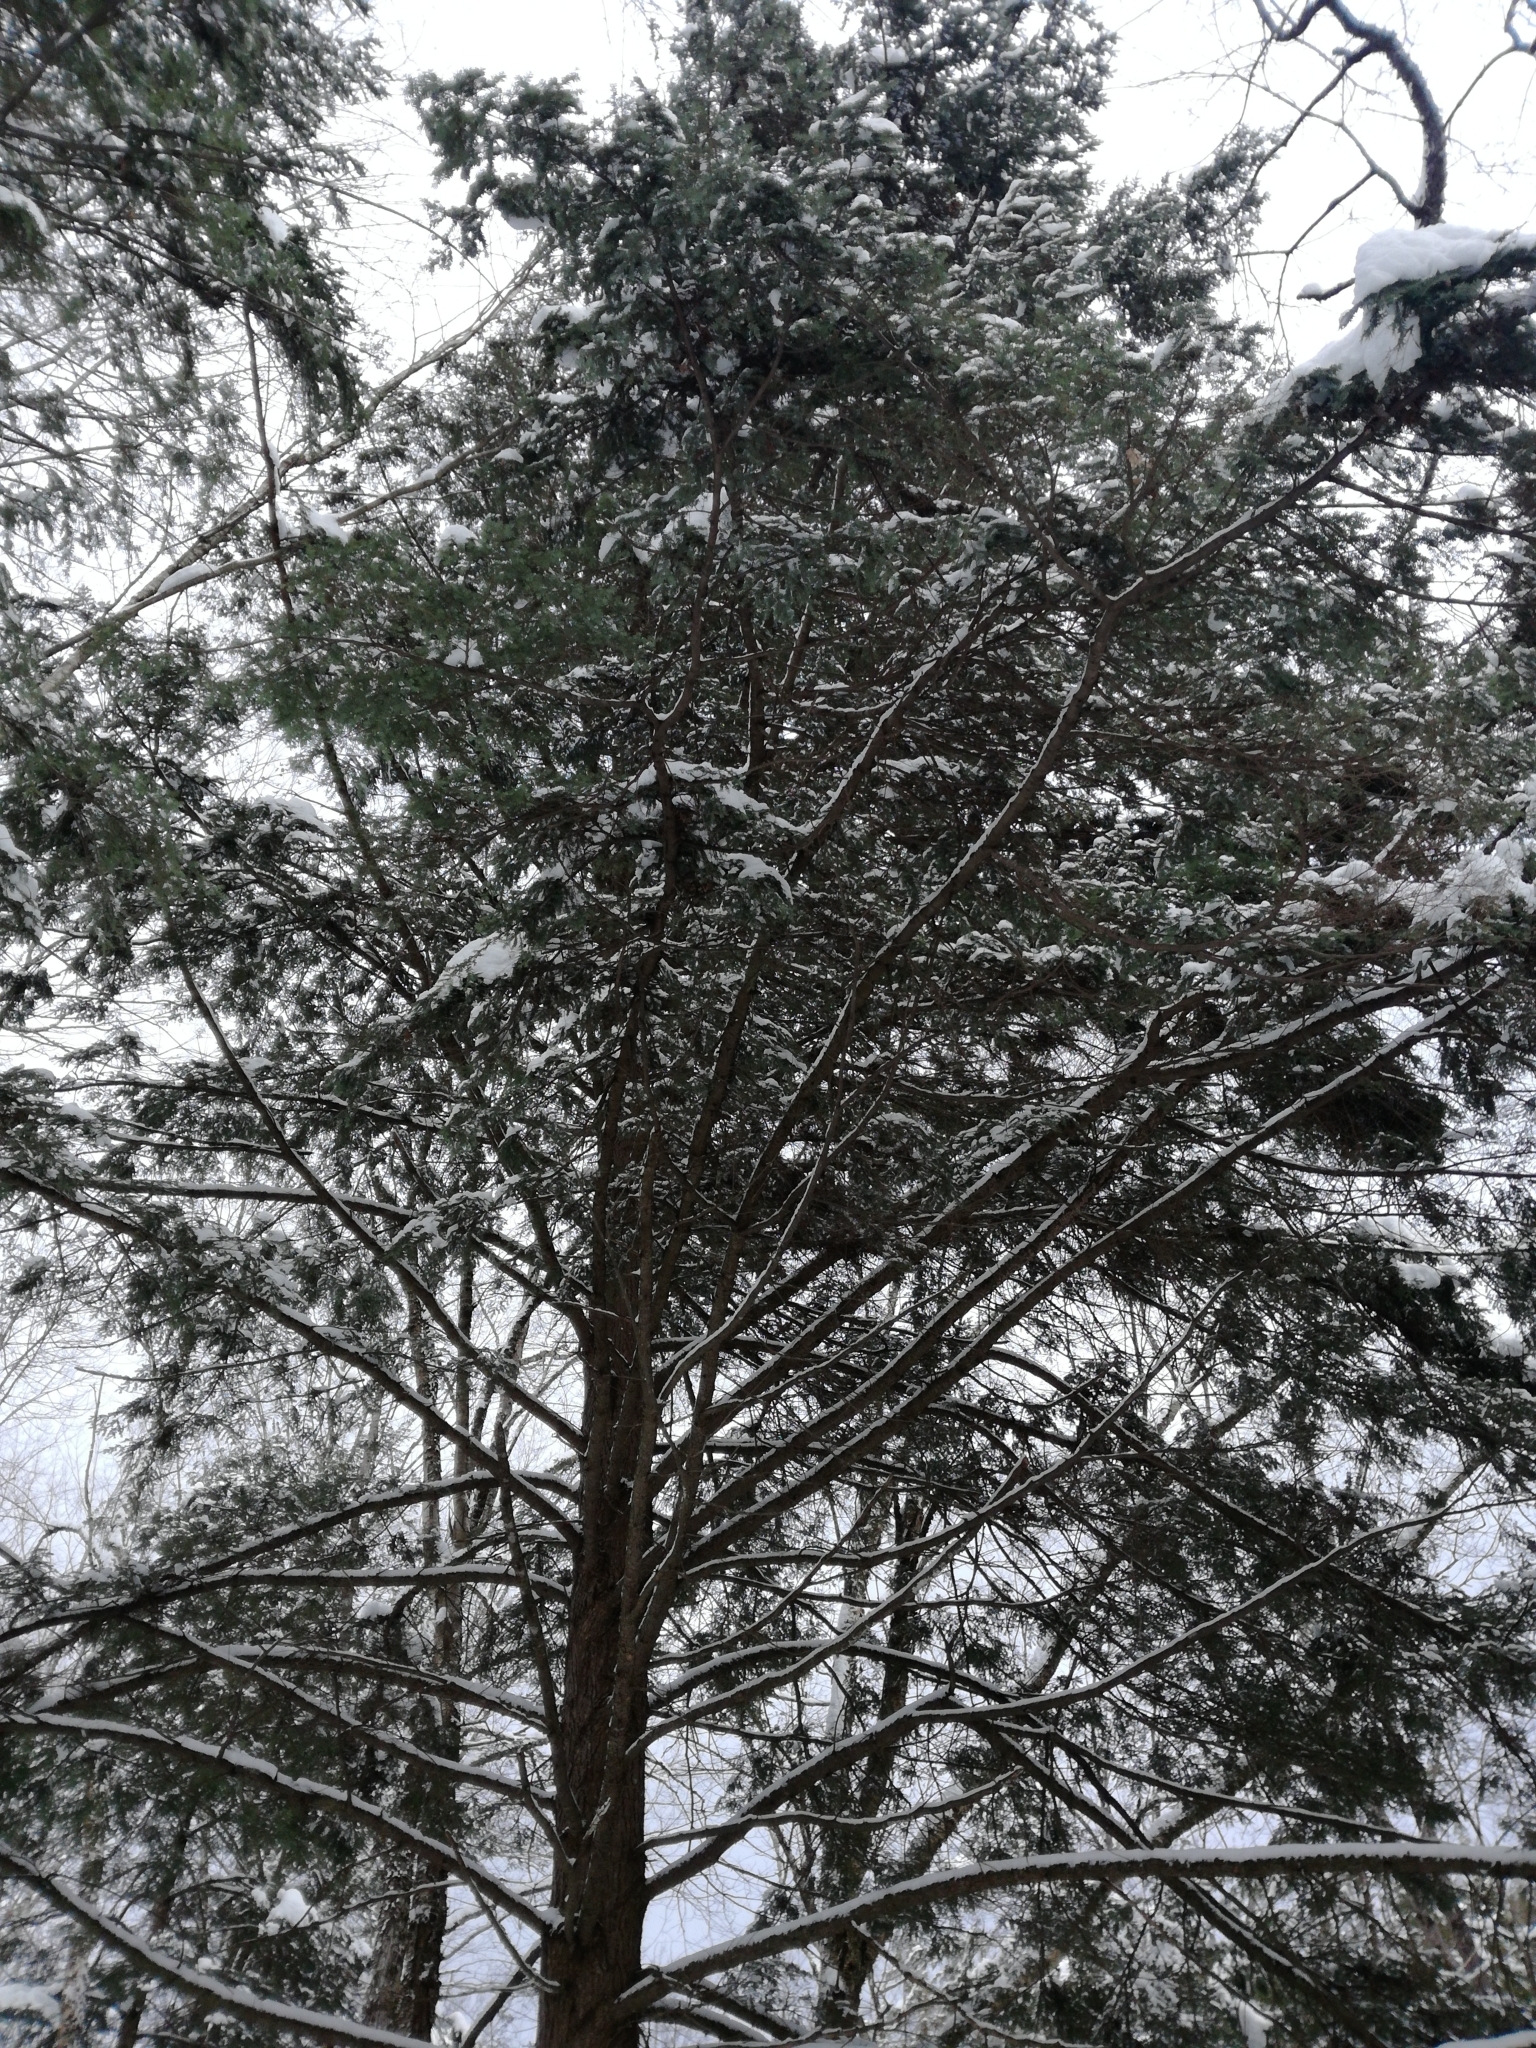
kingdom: Plantae
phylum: Tracheophyta
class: Pinopsida
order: Pinales
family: Pinaceae
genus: Tsuga
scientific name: Tsuga canadensis
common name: Eastern hemlock
